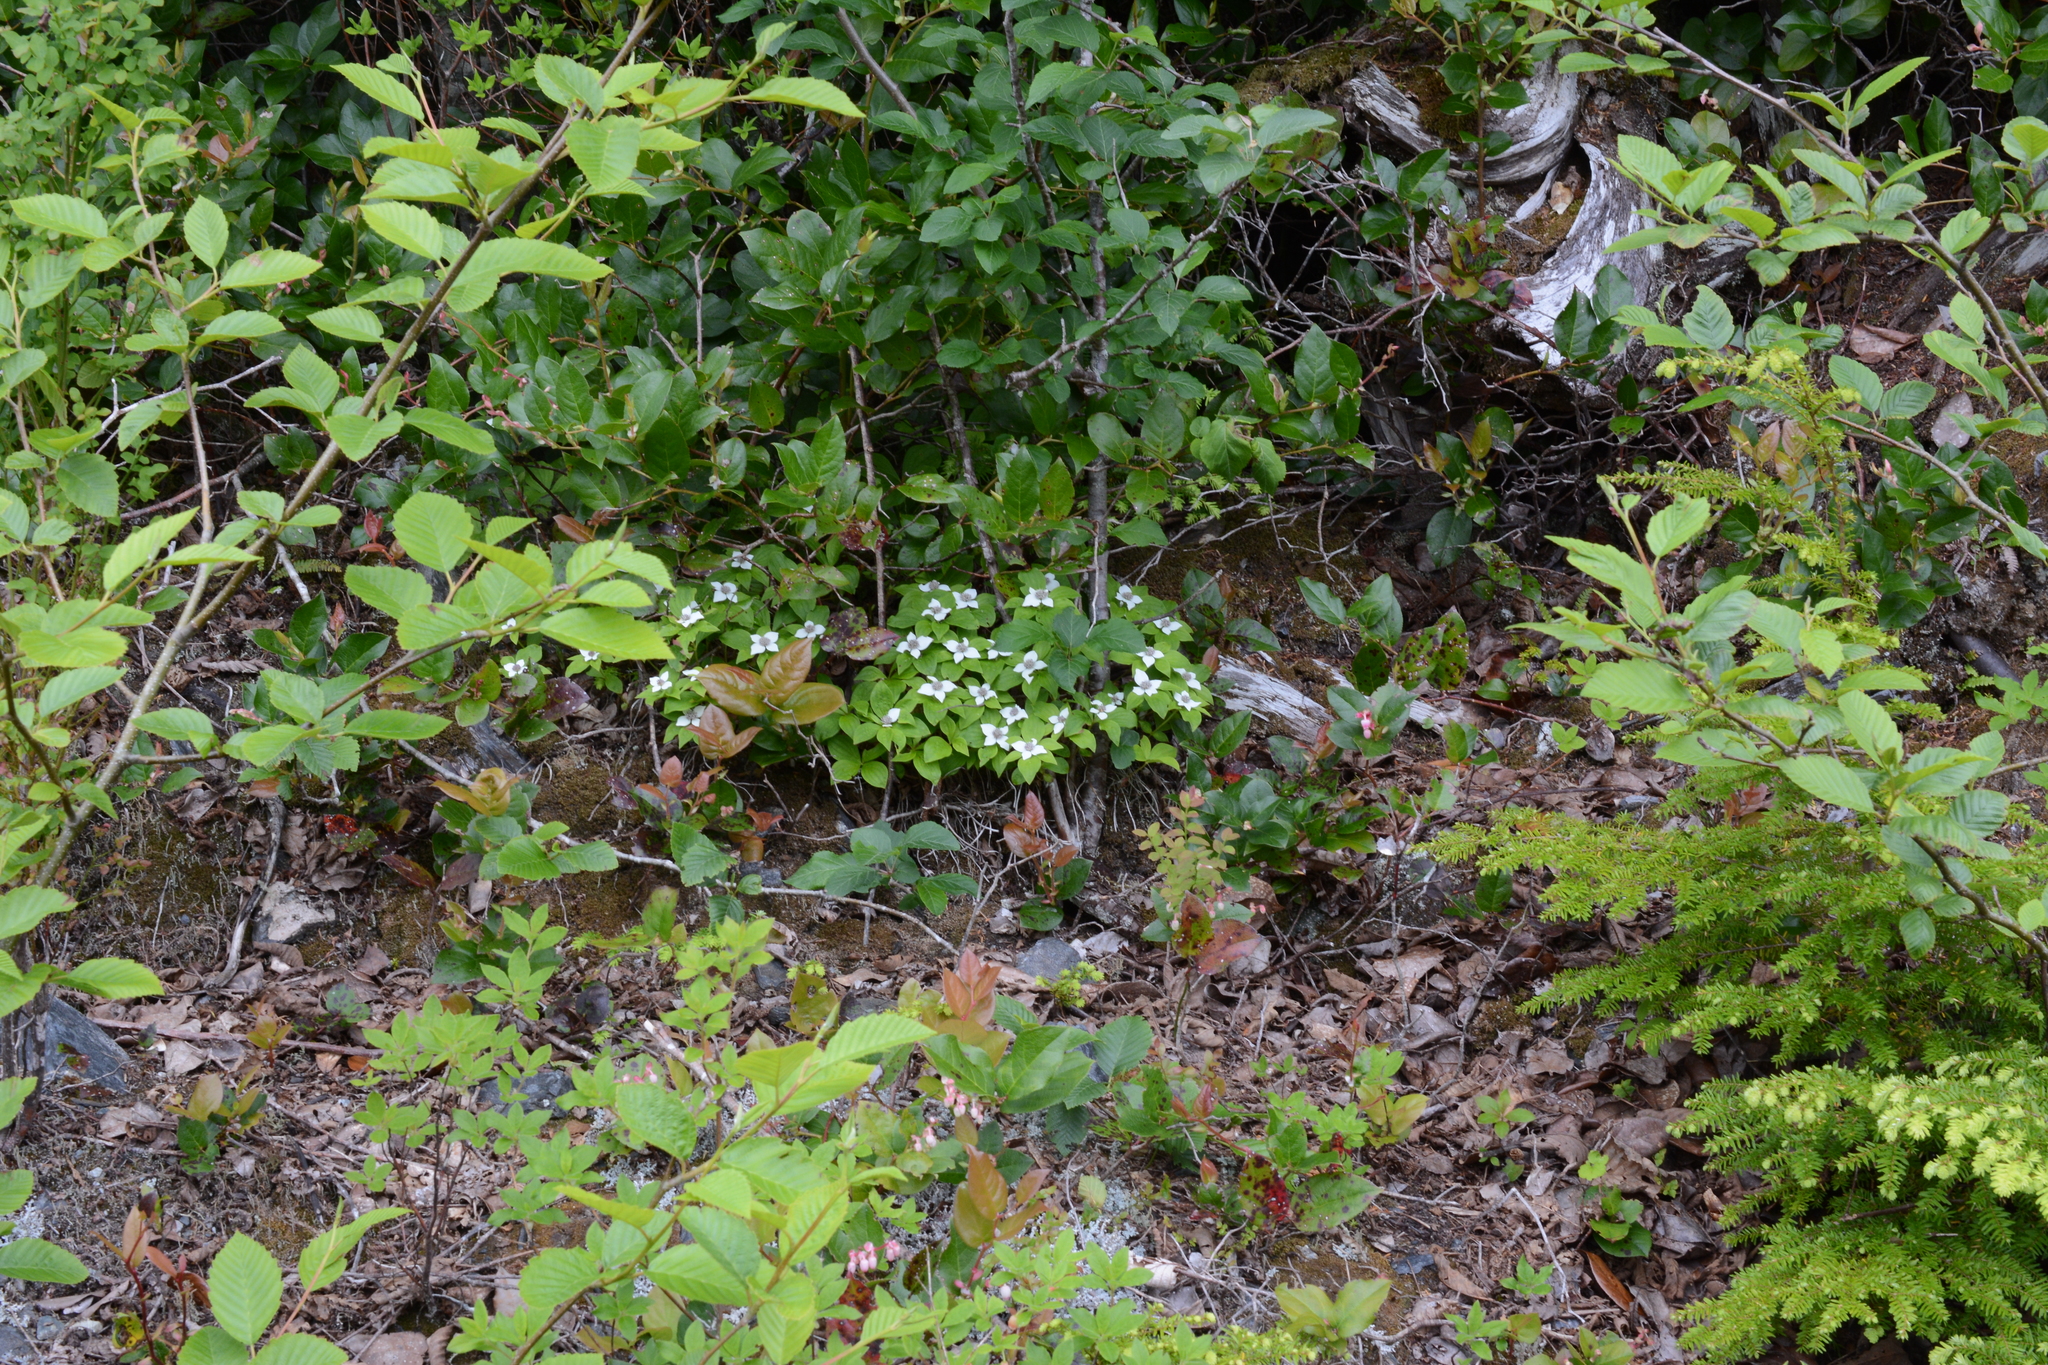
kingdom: Plantae
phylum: Tracheophyta
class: Magnoliopsida
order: Cornales
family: Cornaceae
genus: Cornus
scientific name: Cornus unalaschkensis
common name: Alaska bunchberry
